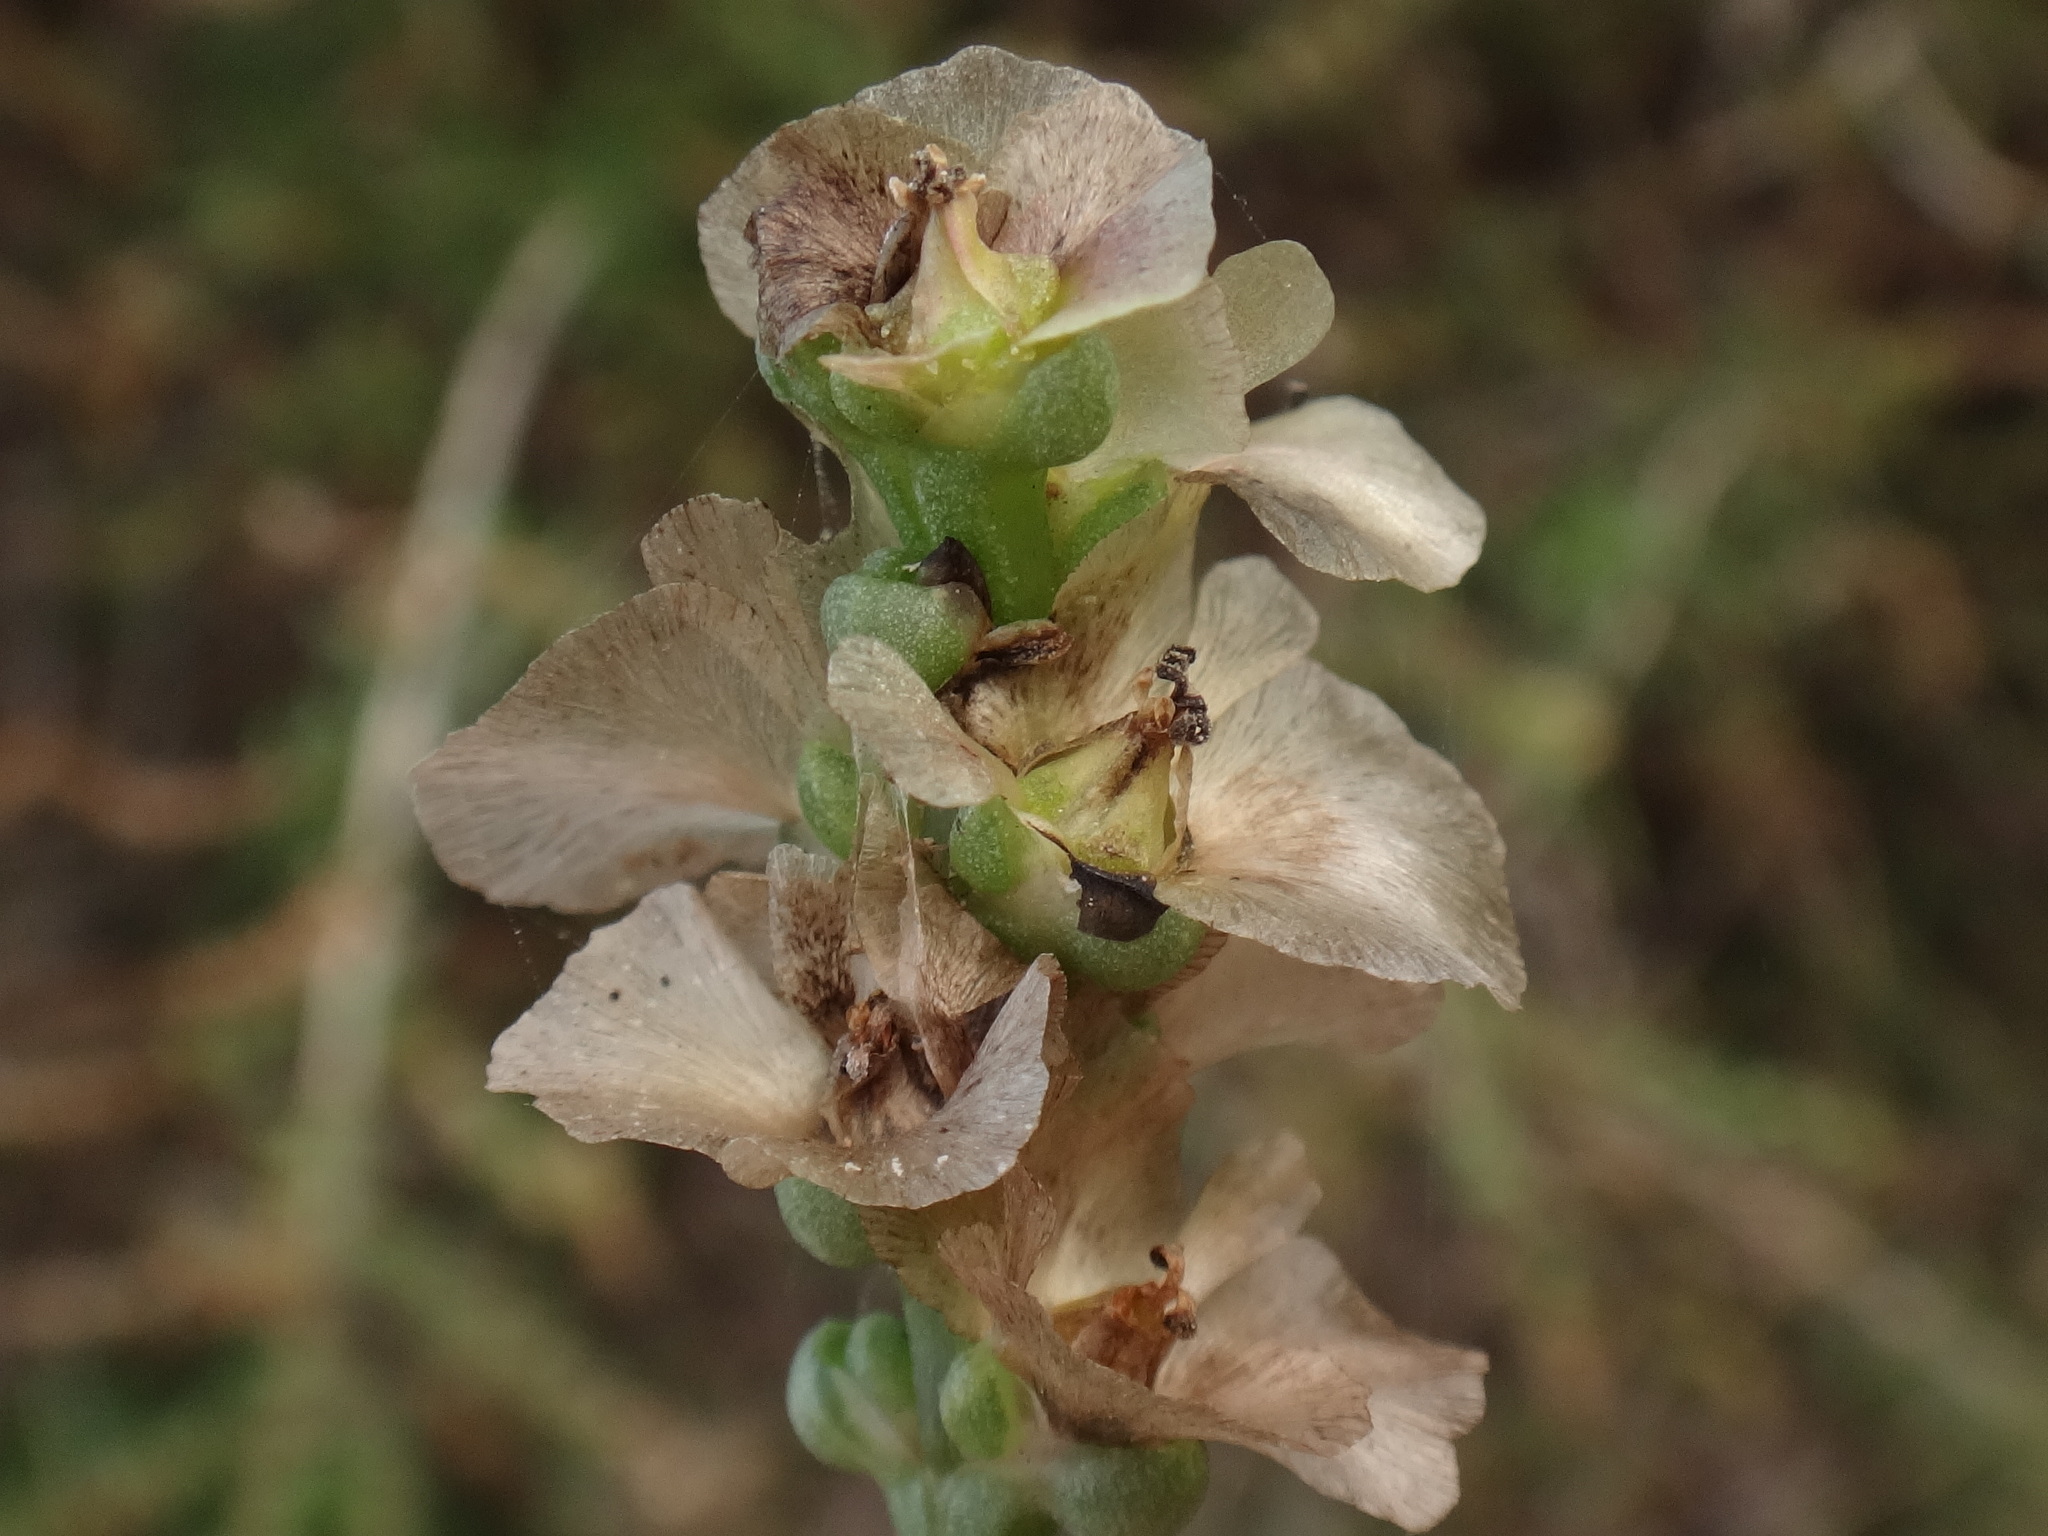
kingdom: Plantae
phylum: Tracheophyta
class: Magnoliopsida
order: Caryophyllales
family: Amaranthaceae
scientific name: Amaranthaceae
